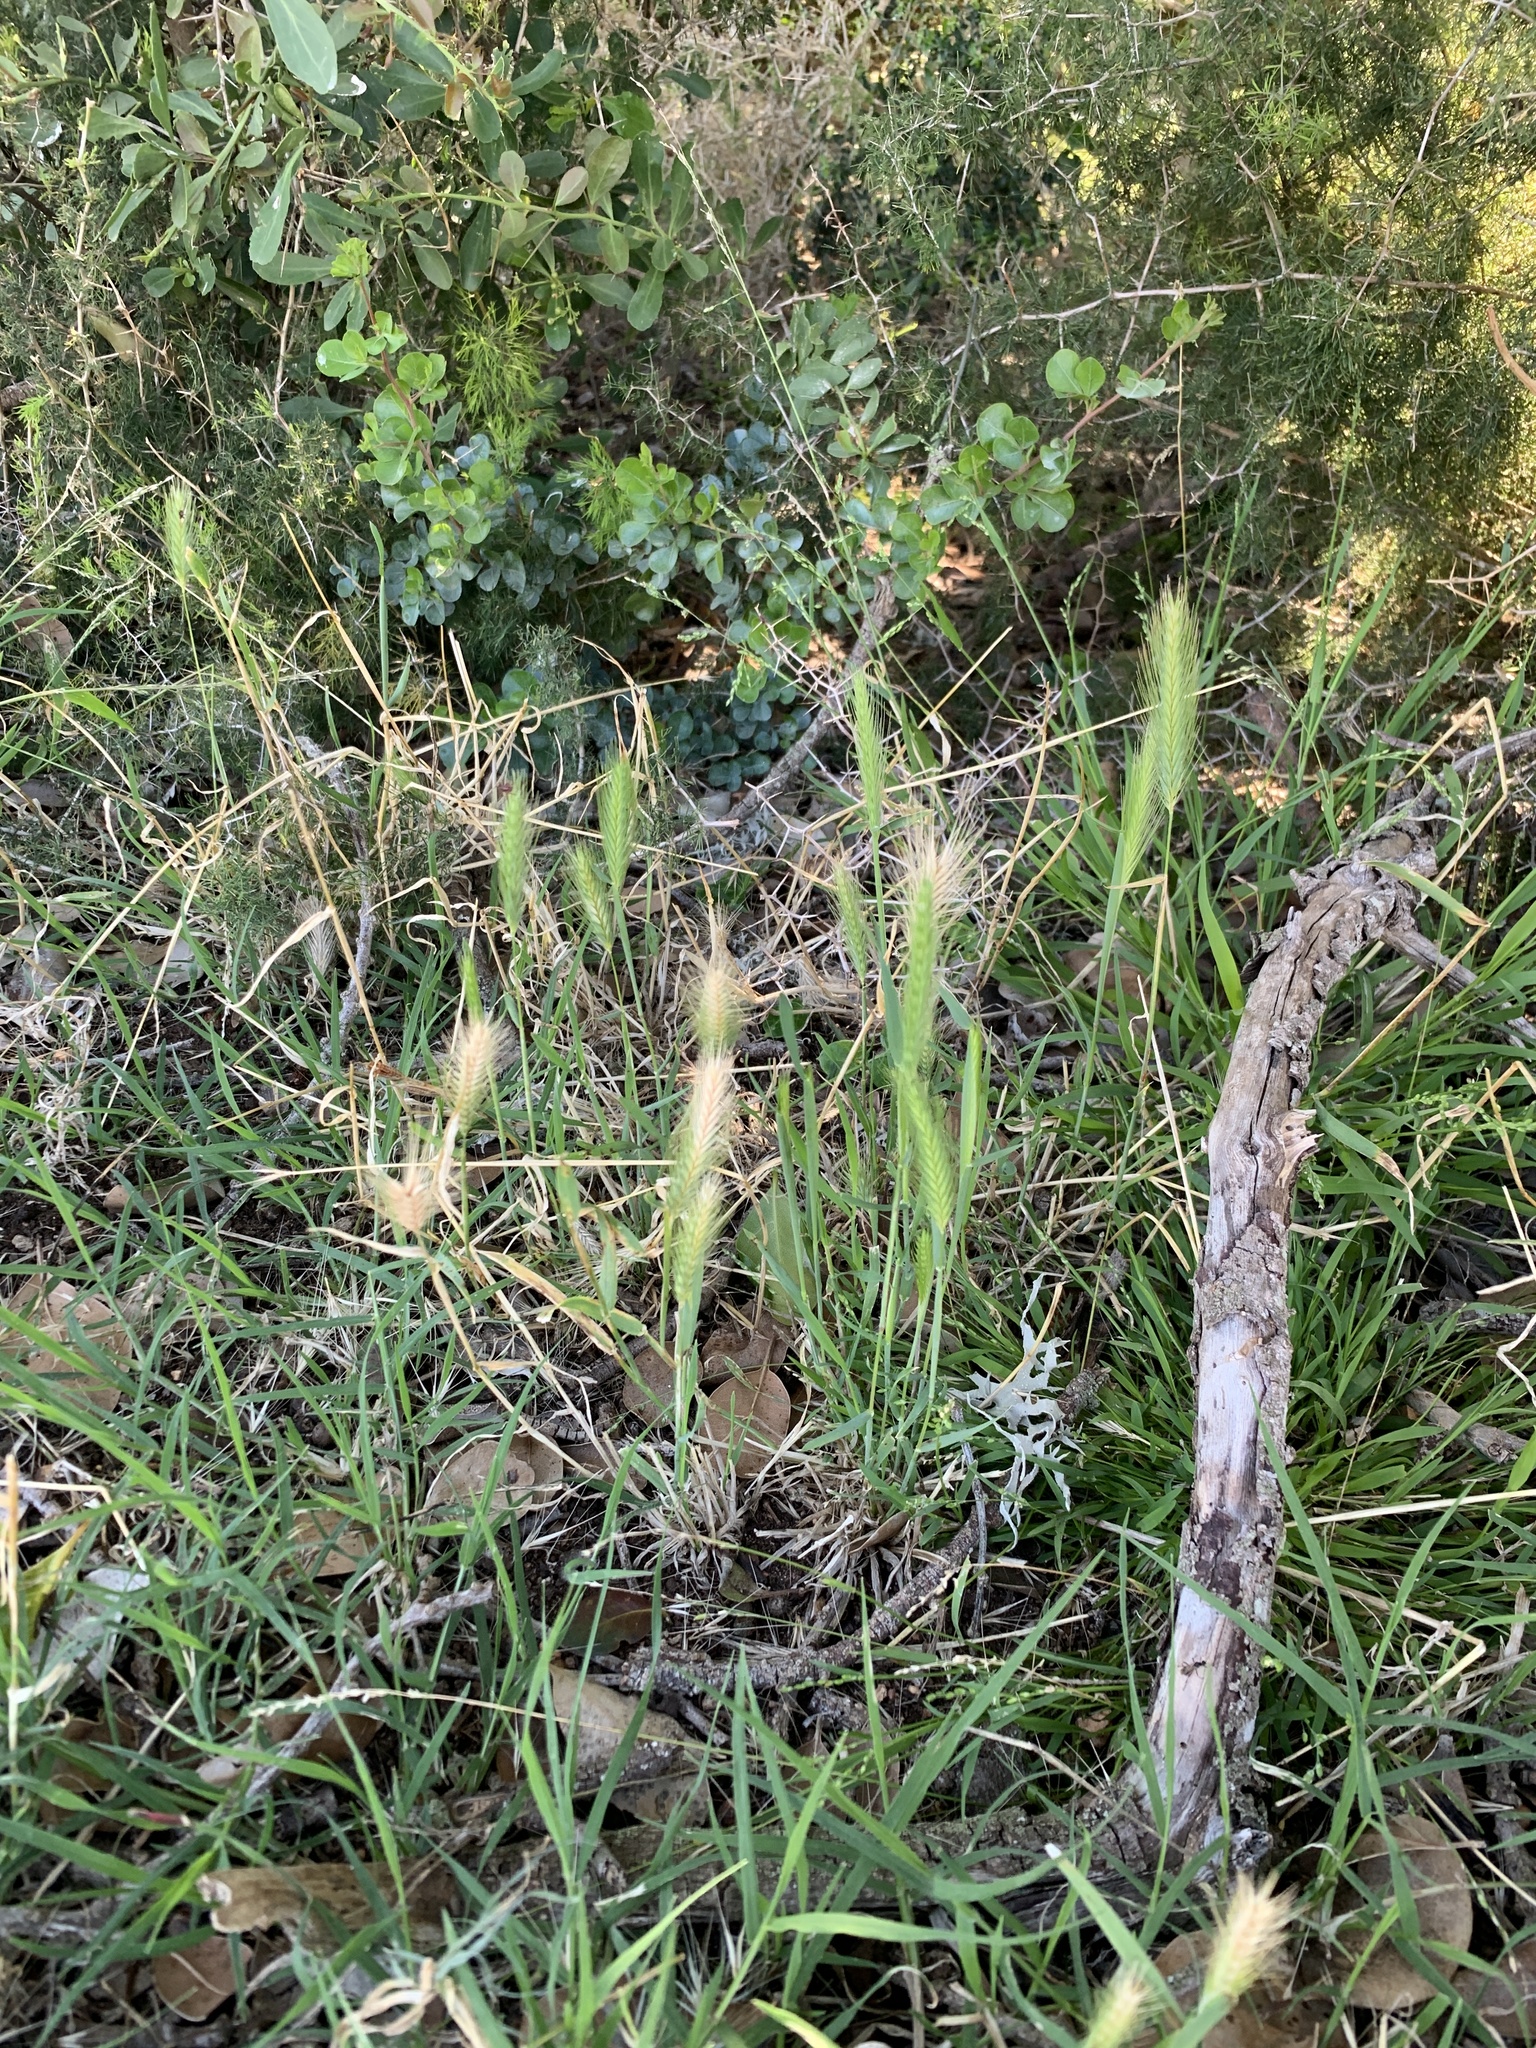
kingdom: Plantae
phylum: Tracheophyta
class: Liliopsida
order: Poales
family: Poaceae
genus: Hordeum
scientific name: Hordeum murinum
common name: Wall barley
